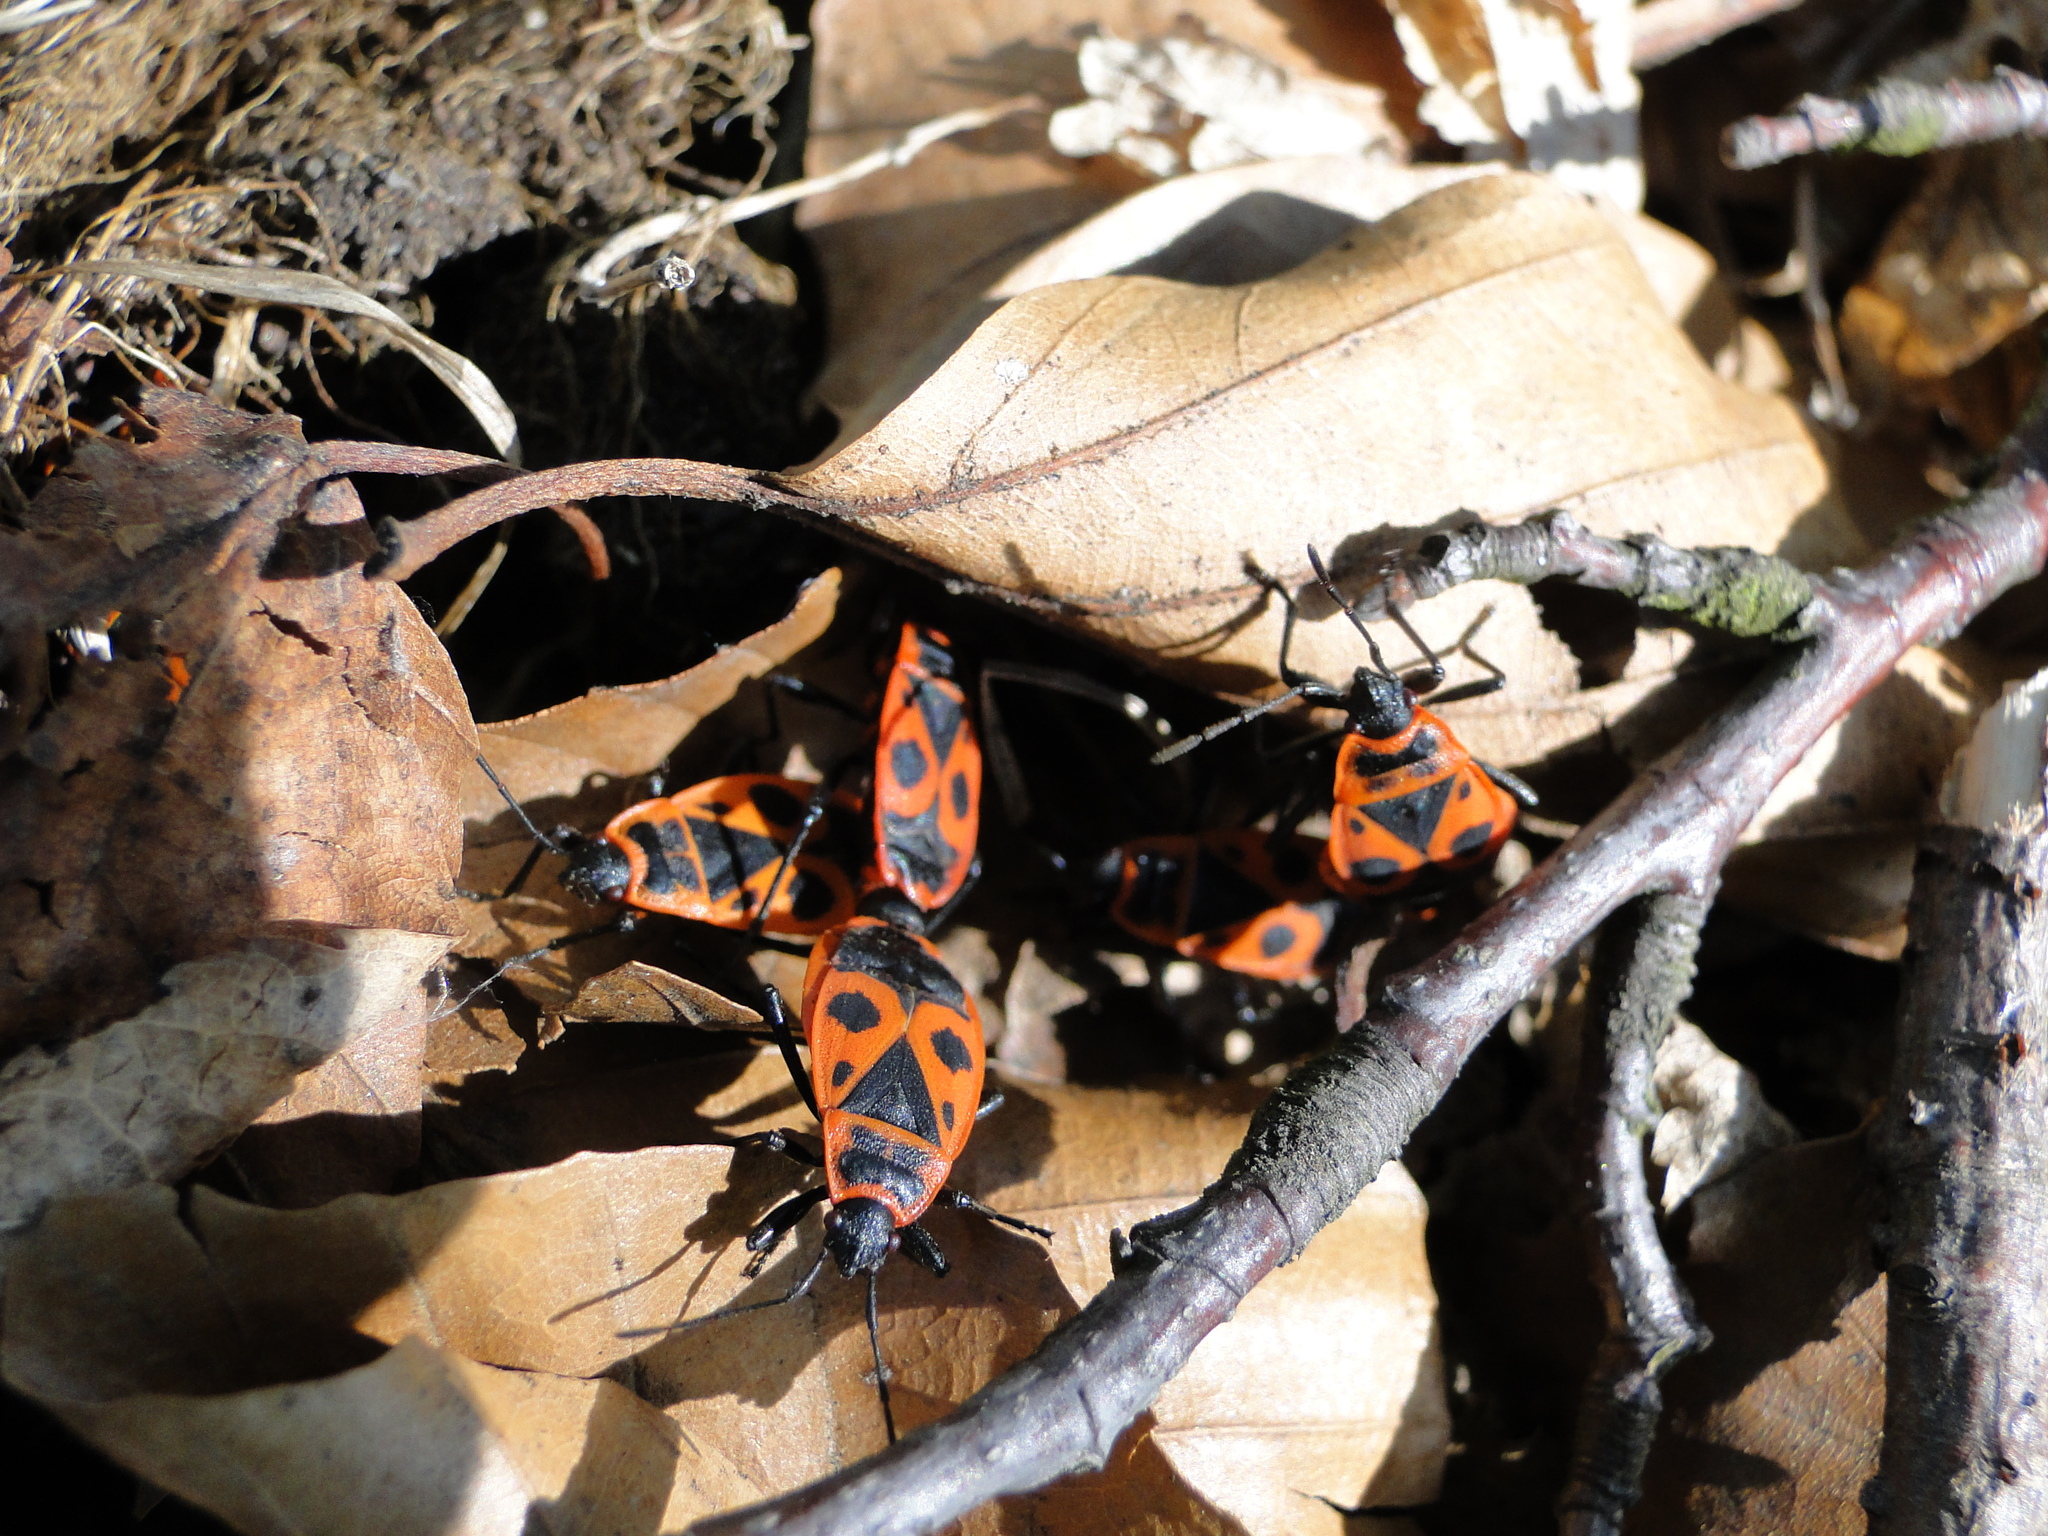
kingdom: Animalia
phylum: Arthropoda
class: Insecta
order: Hemiptera
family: Pyrrhocoridae
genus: Pyrrhocoris
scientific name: Pyrrhocoris apterus
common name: Firebug
